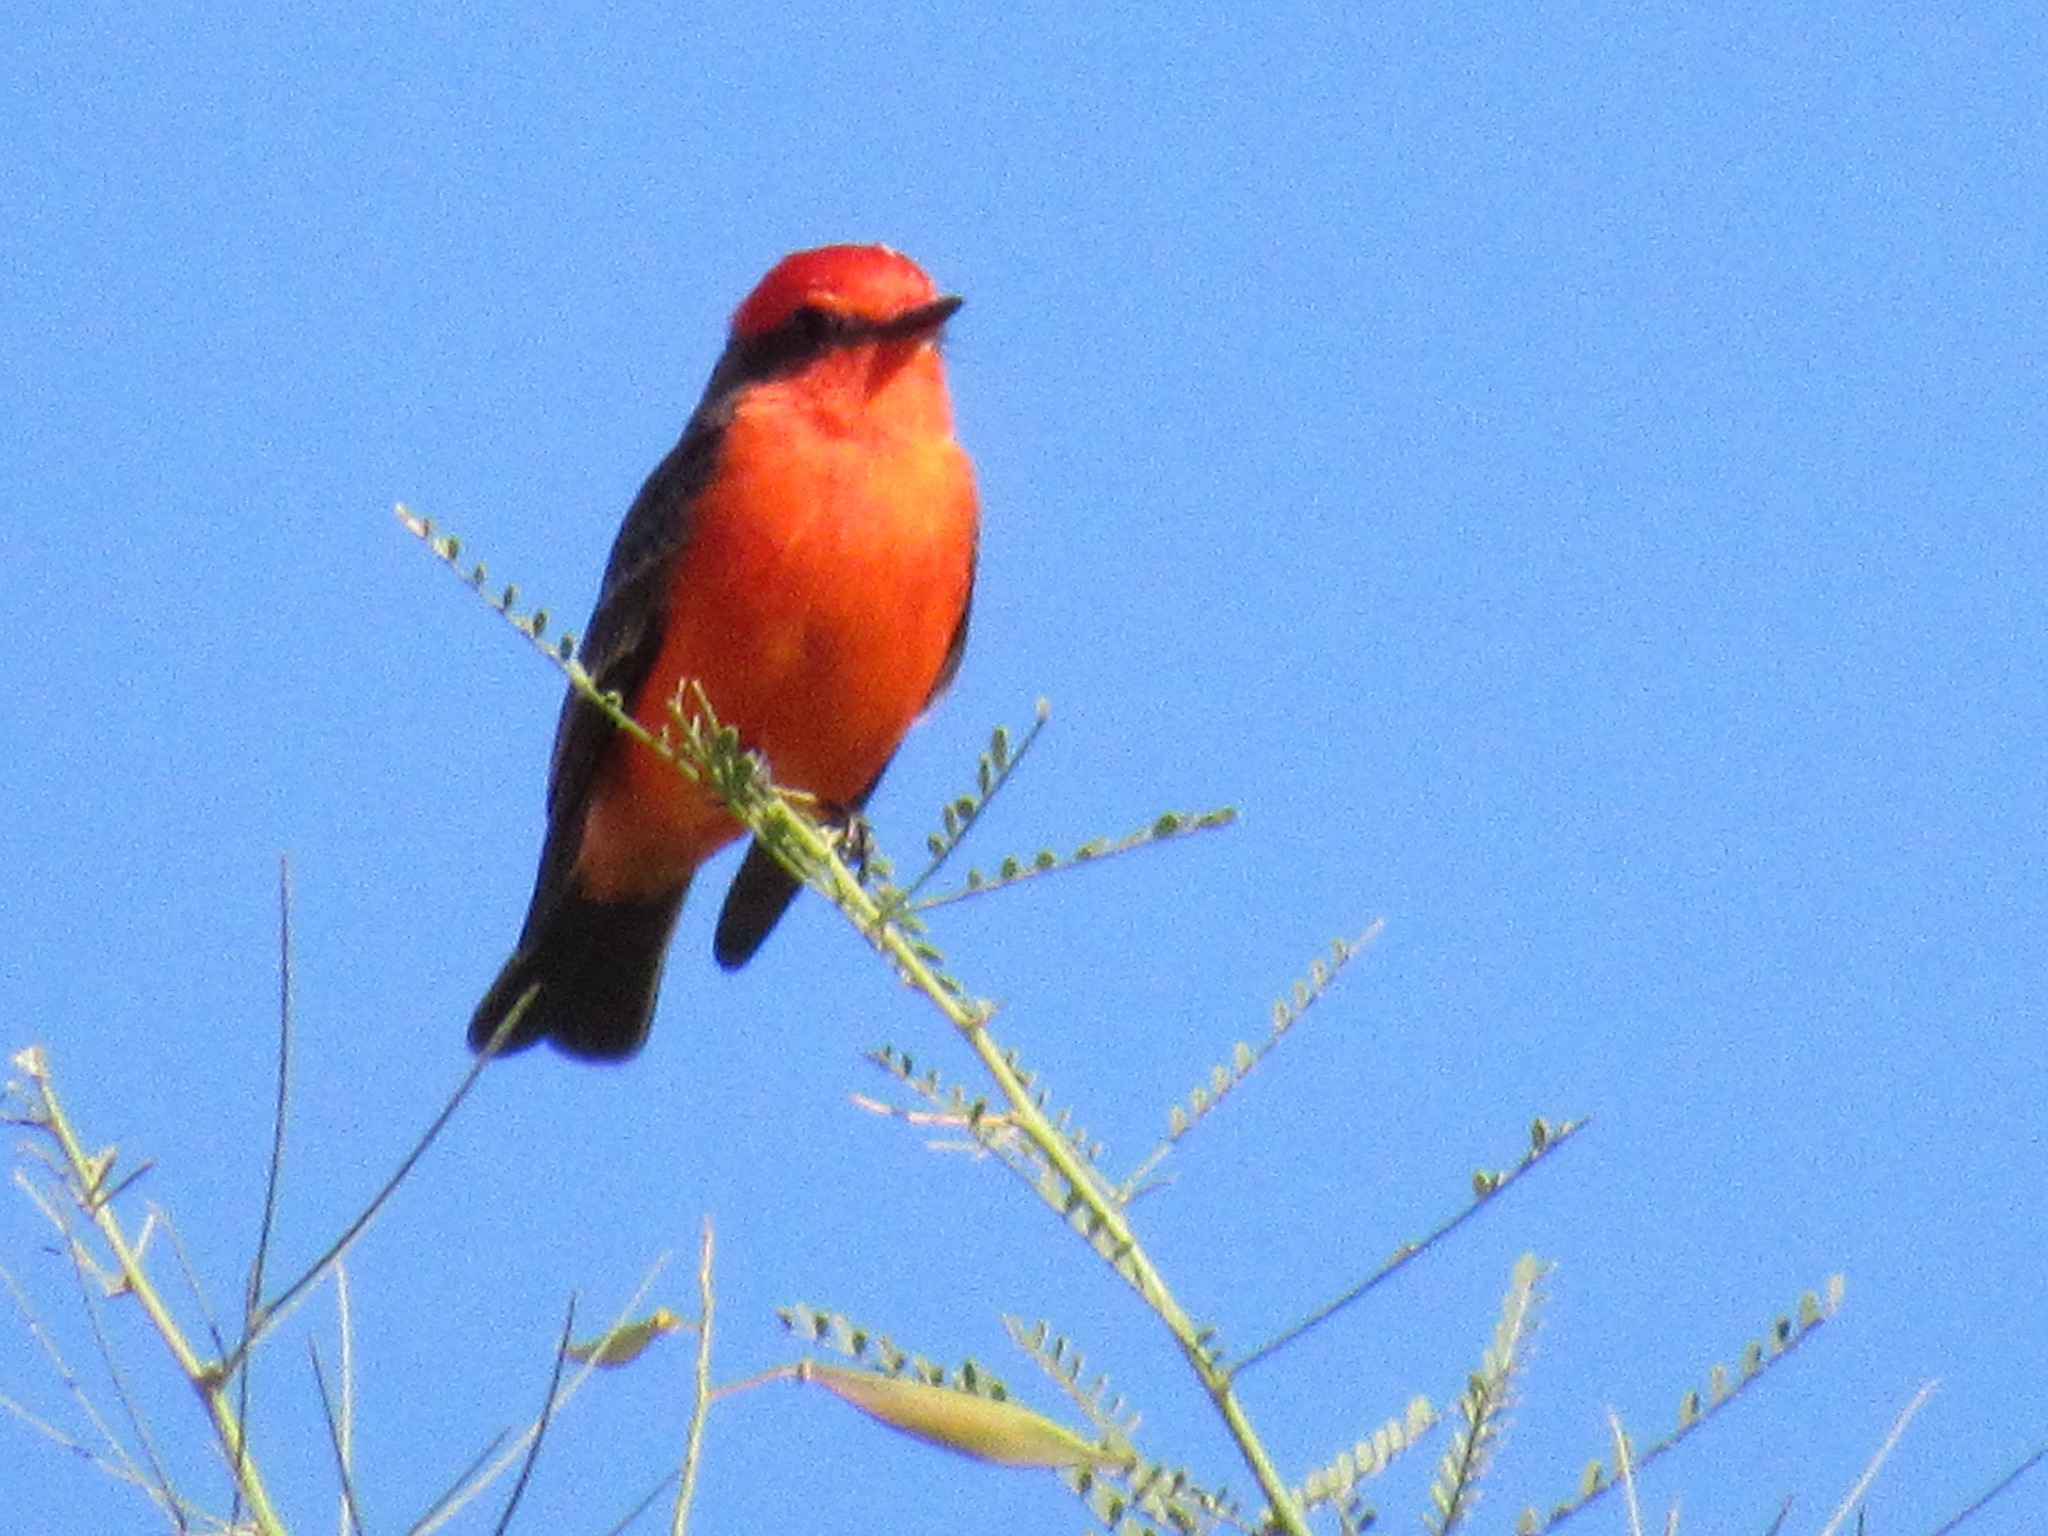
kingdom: Animalia
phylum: Chordata
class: Aves
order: Passeriformes
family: Tyrannidae
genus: Pyrocephalus
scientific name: Pyrocephalus rubinus
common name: Vermilion flycatcher
